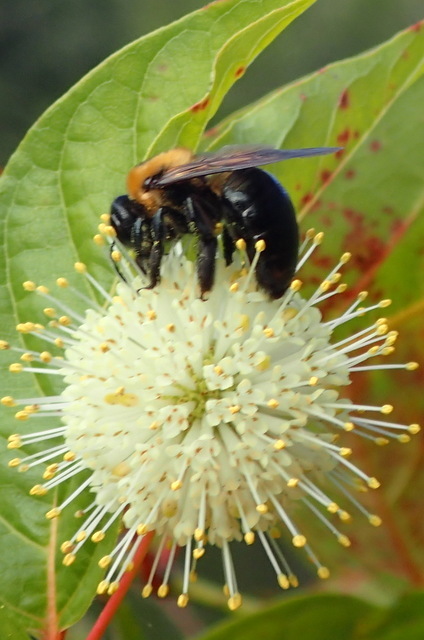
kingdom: Animalia
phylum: Arthropoda
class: Insecta
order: Hymenoptera
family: Apidae
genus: Xylocopa
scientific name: Xylocopa virginica
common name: Carpenter bee
